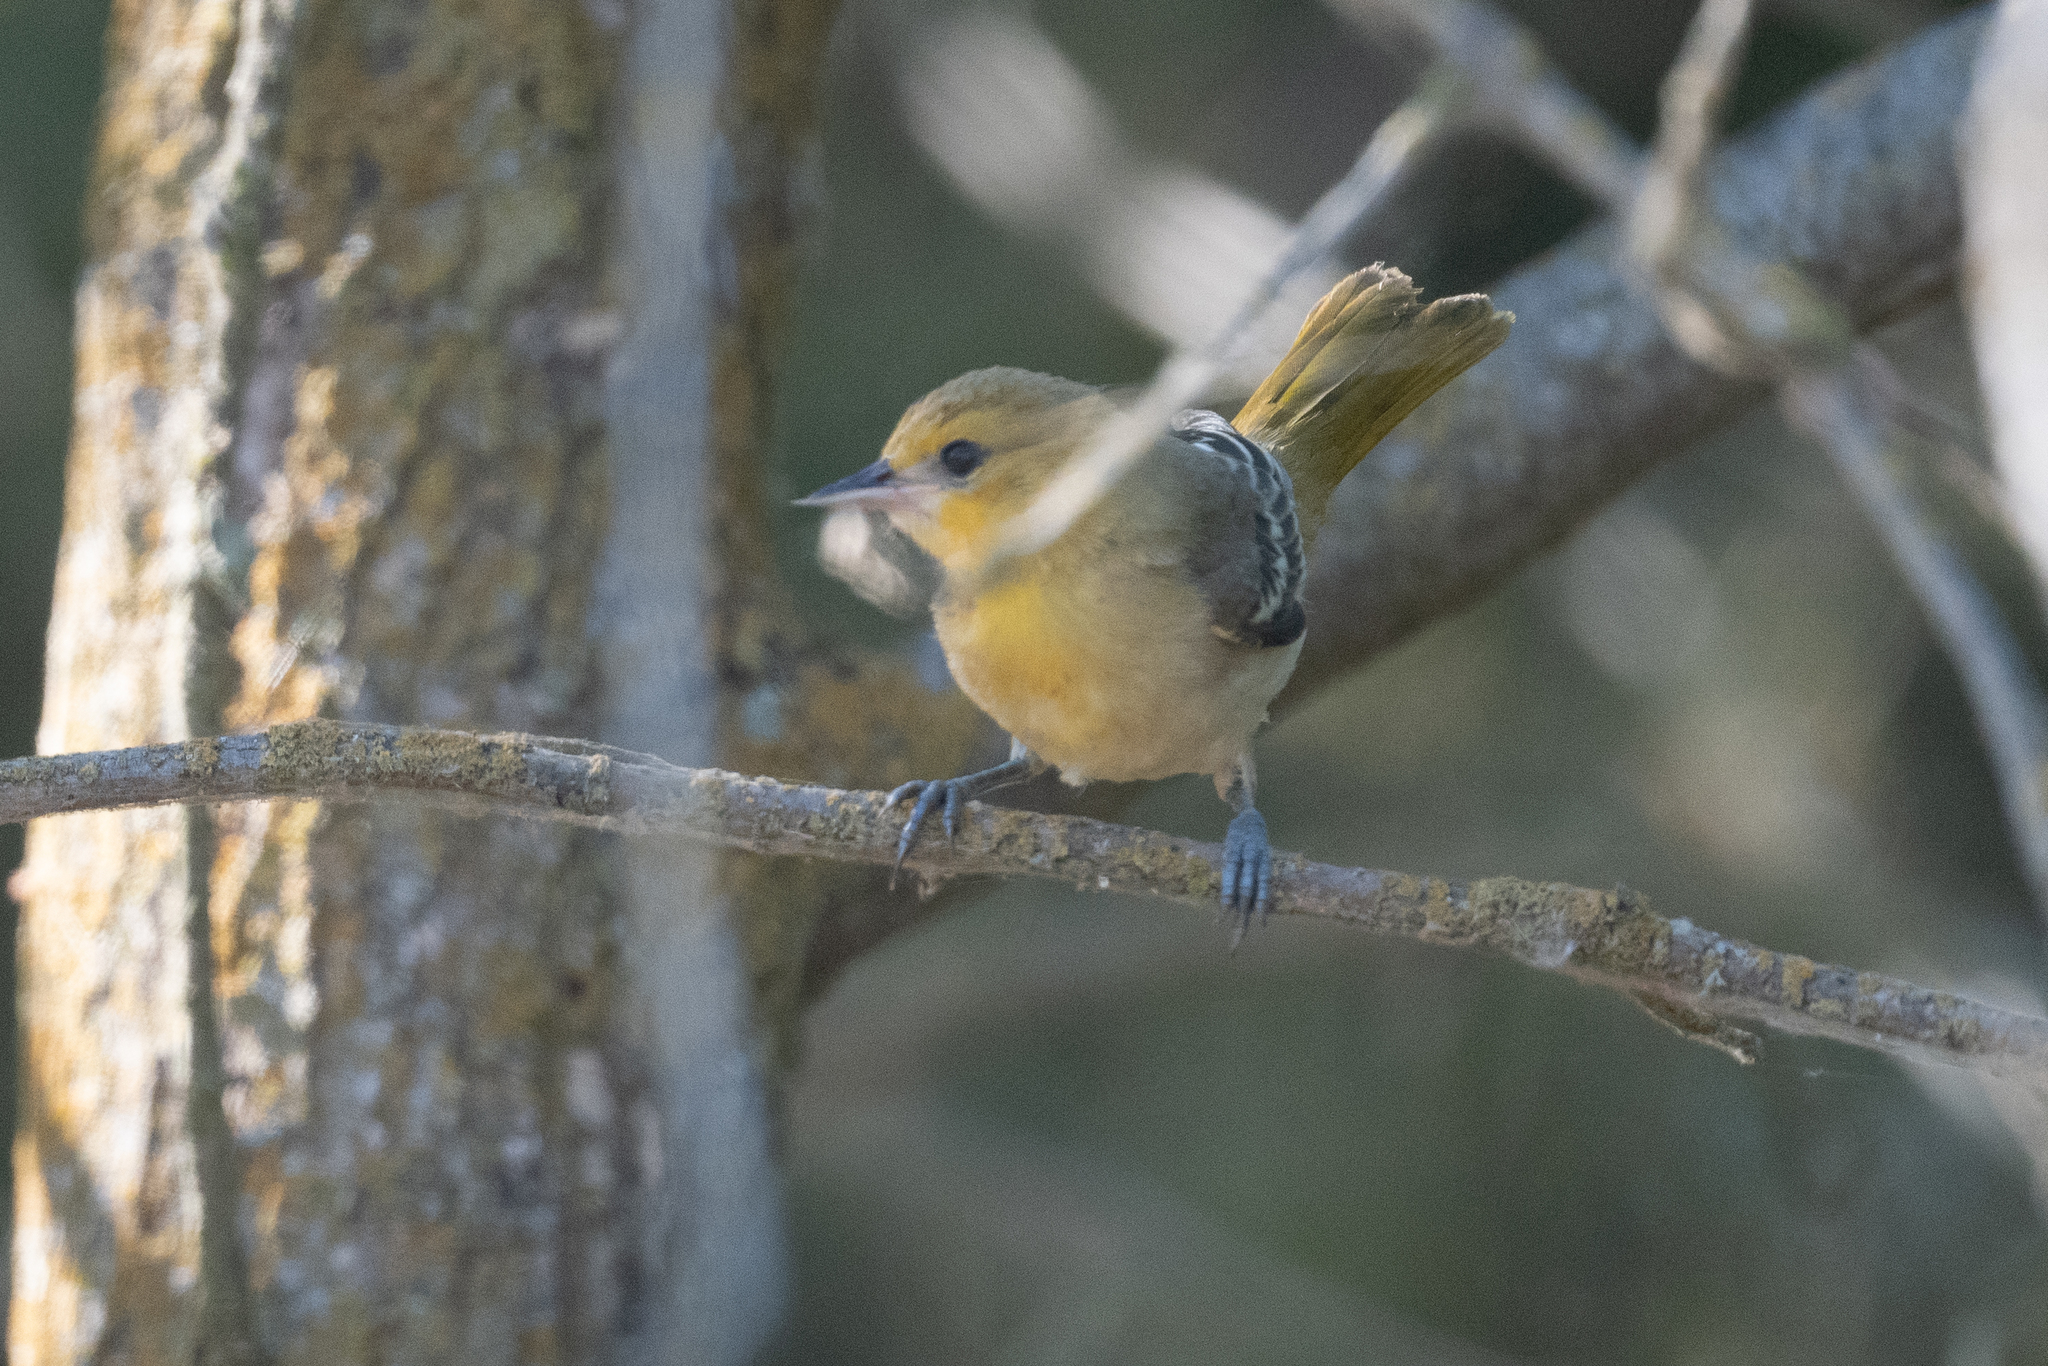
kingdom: Animalia
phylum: Chordata
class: Aves
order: Passeriformes
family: Icteridae
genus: Icterus
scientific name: Icterus bullockii
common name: Bullock's oriole
